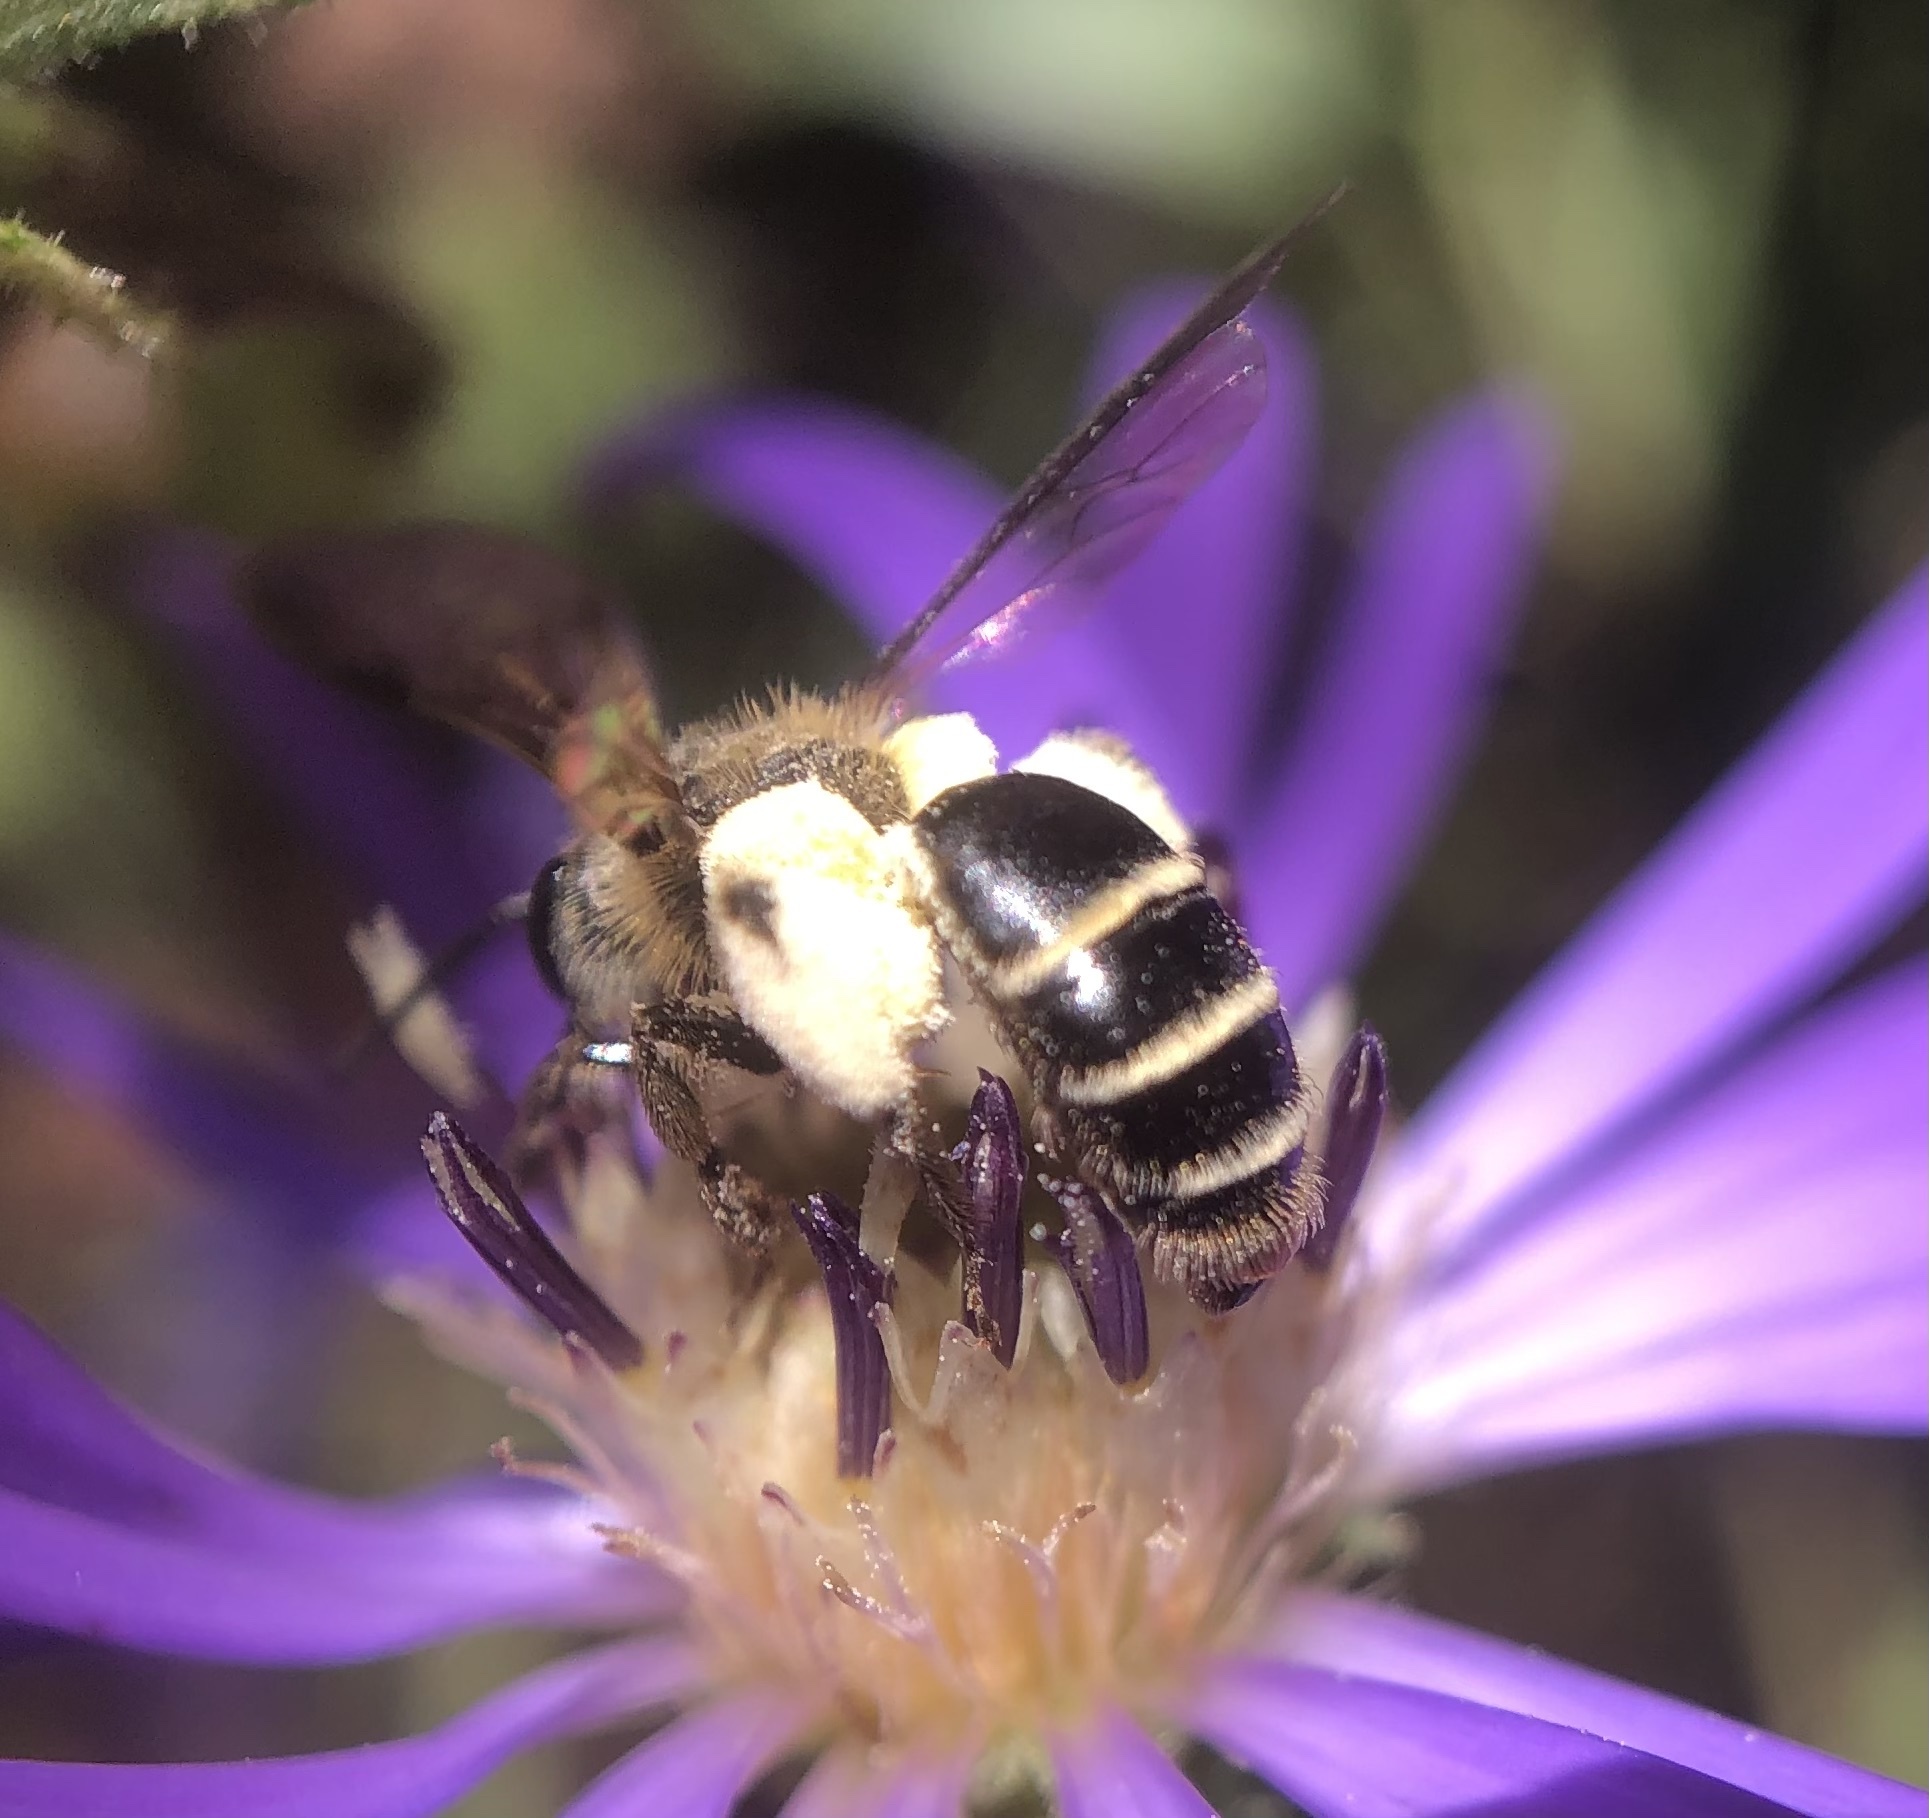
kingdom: Animalia
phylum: Arthropoda
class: Insecta
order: Hymenoptera
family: Andrenidae
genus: Andrena
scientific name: Andrena nubecula
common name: Cloudy-winged mining bee
